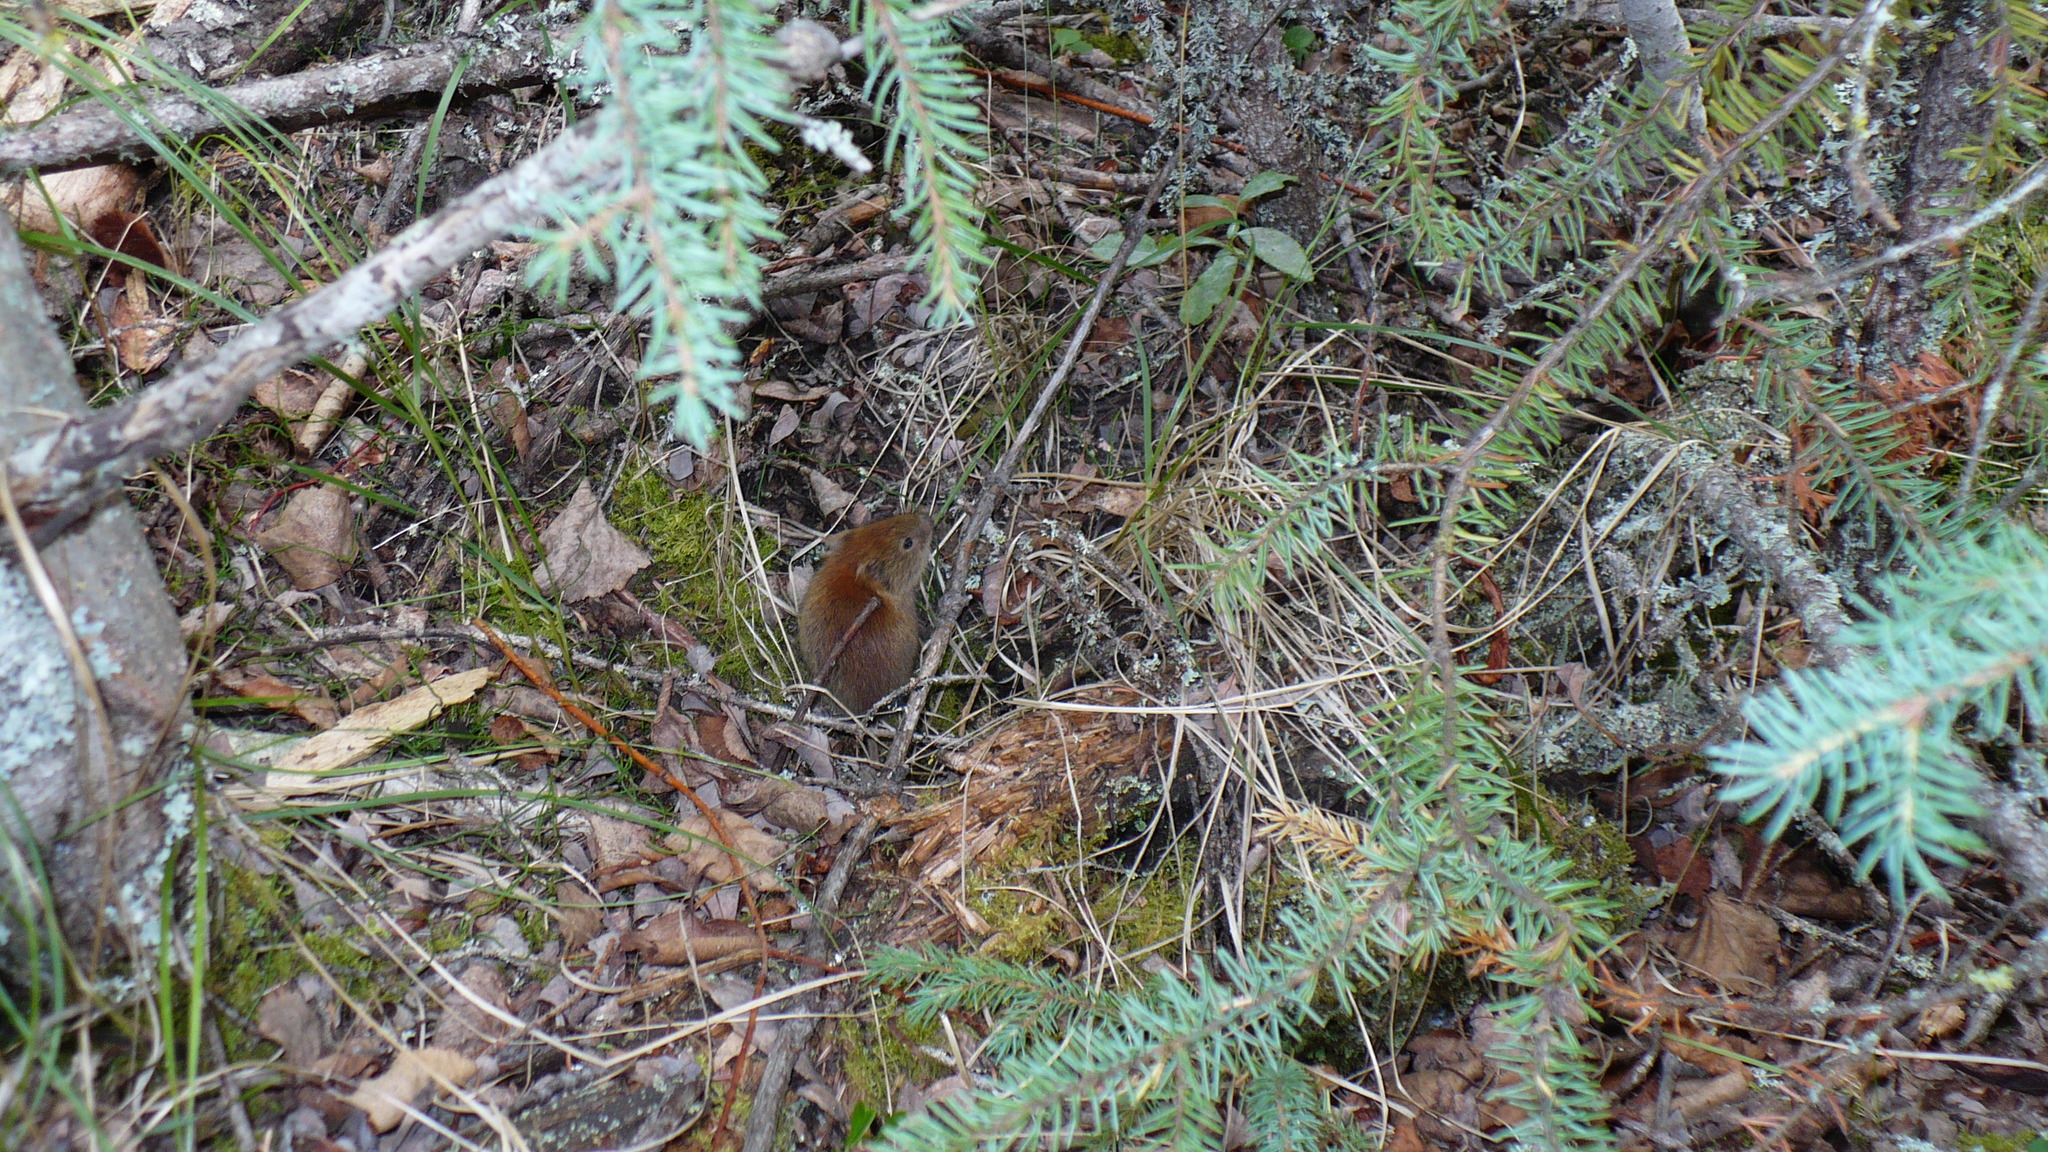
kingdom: Animalia
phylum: Chordata
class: Mammalia
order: Rodentia
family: Cricetidae
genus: Myodes
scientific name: Myodes rutilus
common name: Northern red-backed vole
